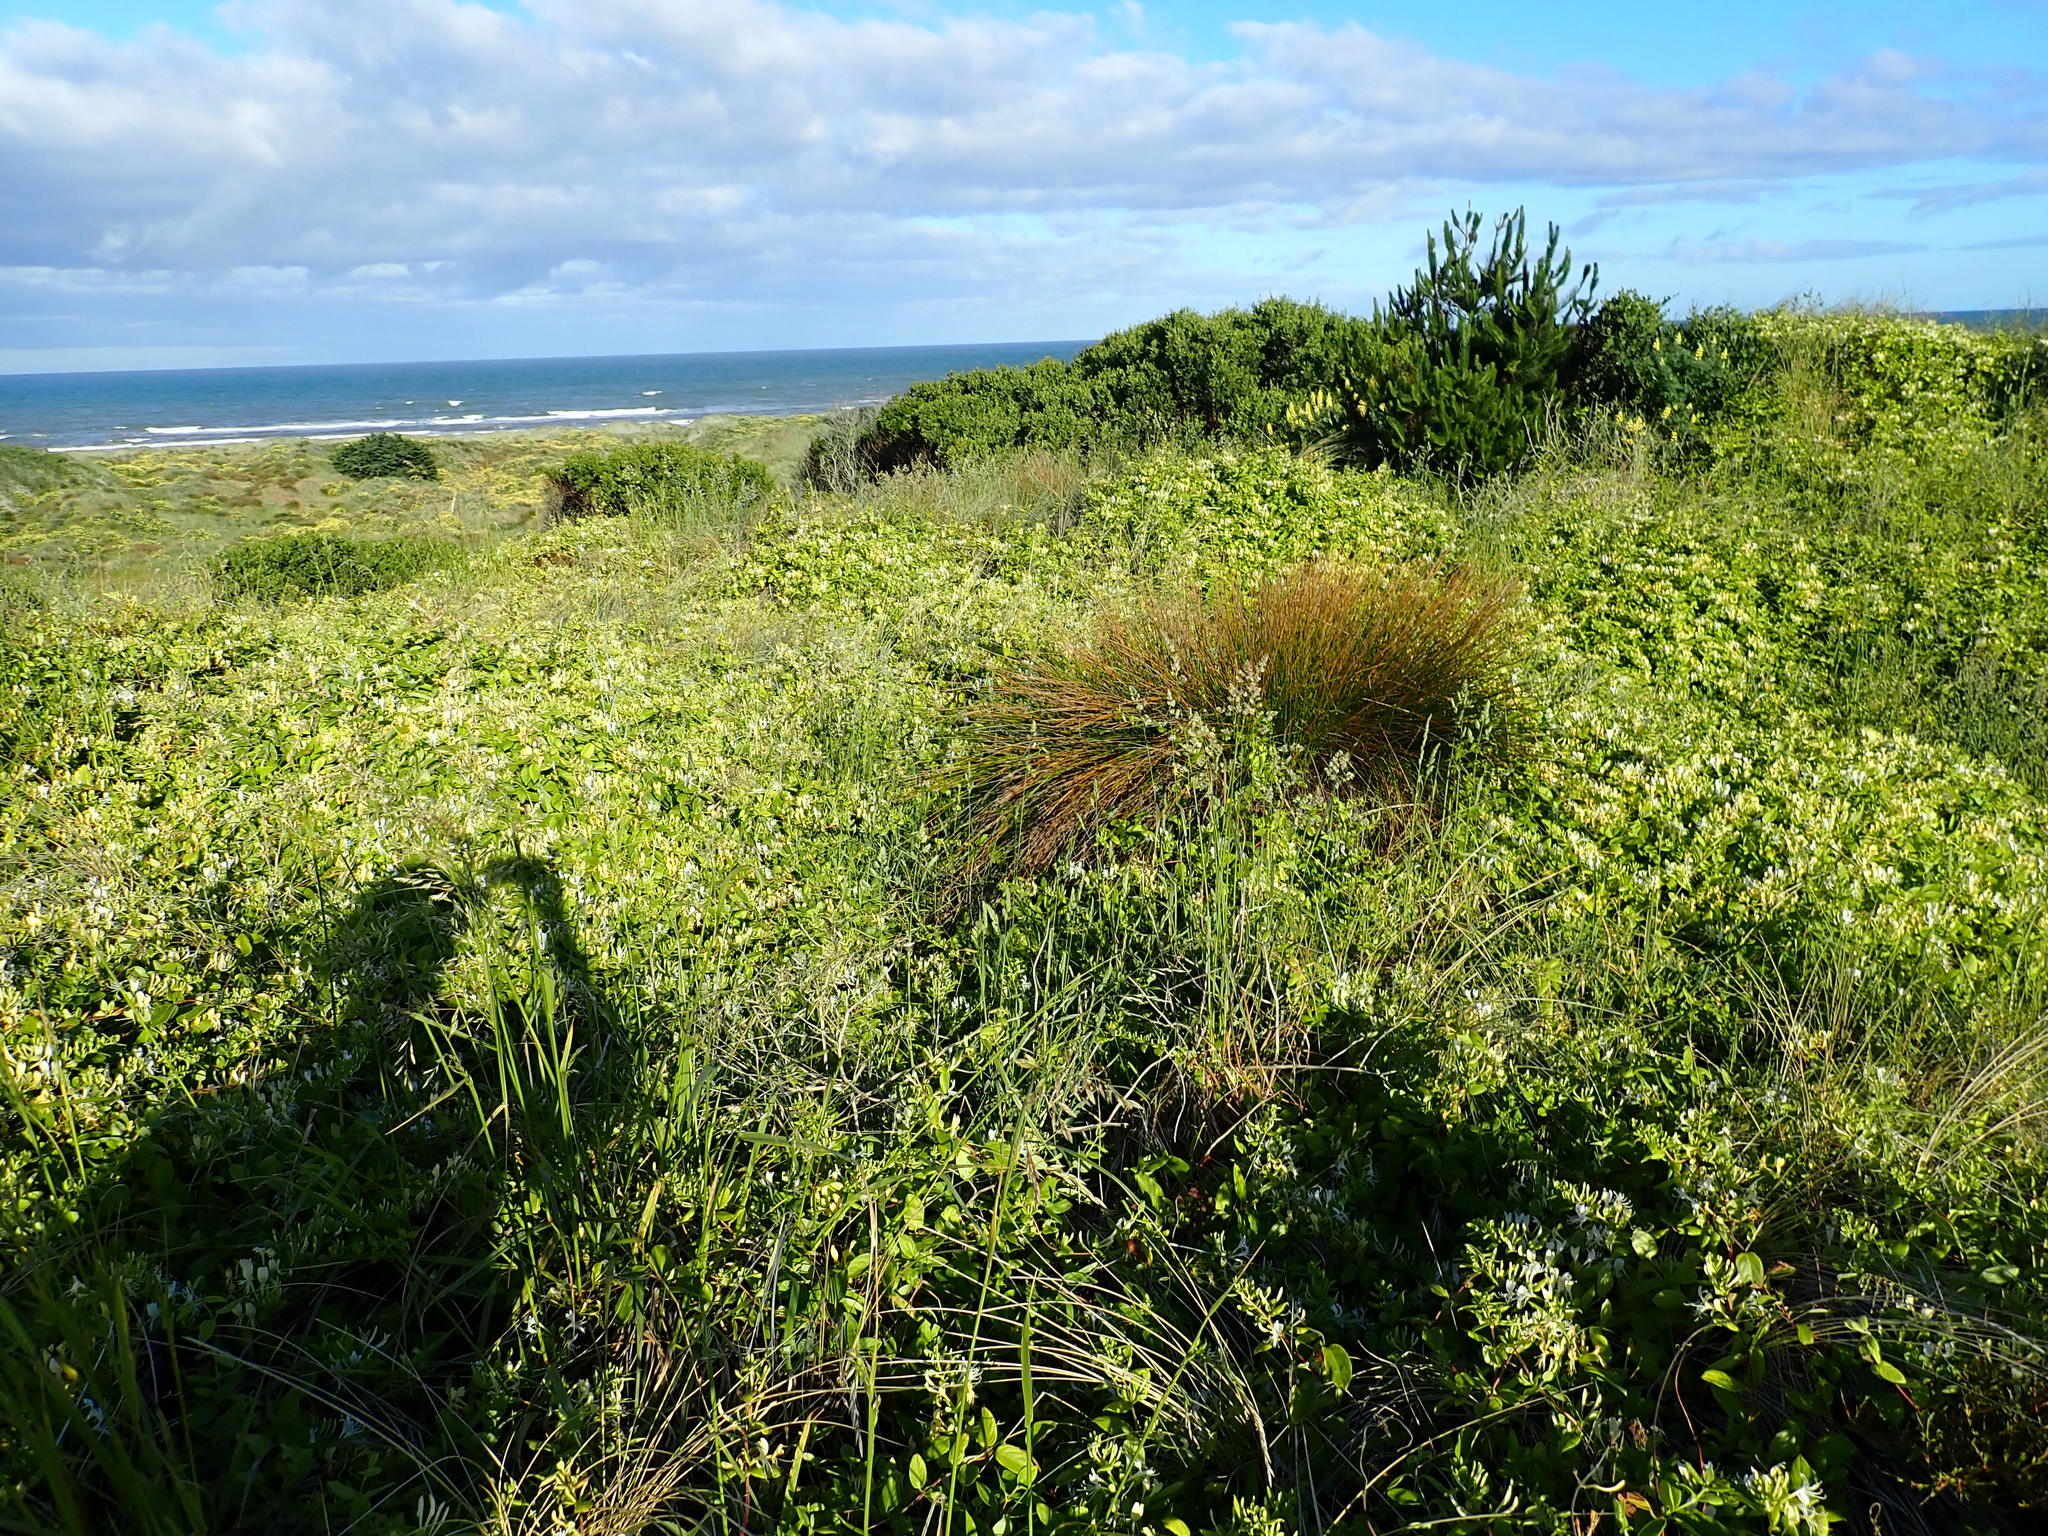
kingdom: Plantae
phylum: Tracheophyta
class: Liliopsida
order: Poales
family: Cyperaceae
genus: Ficinia
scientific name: Ficinia nodosa
